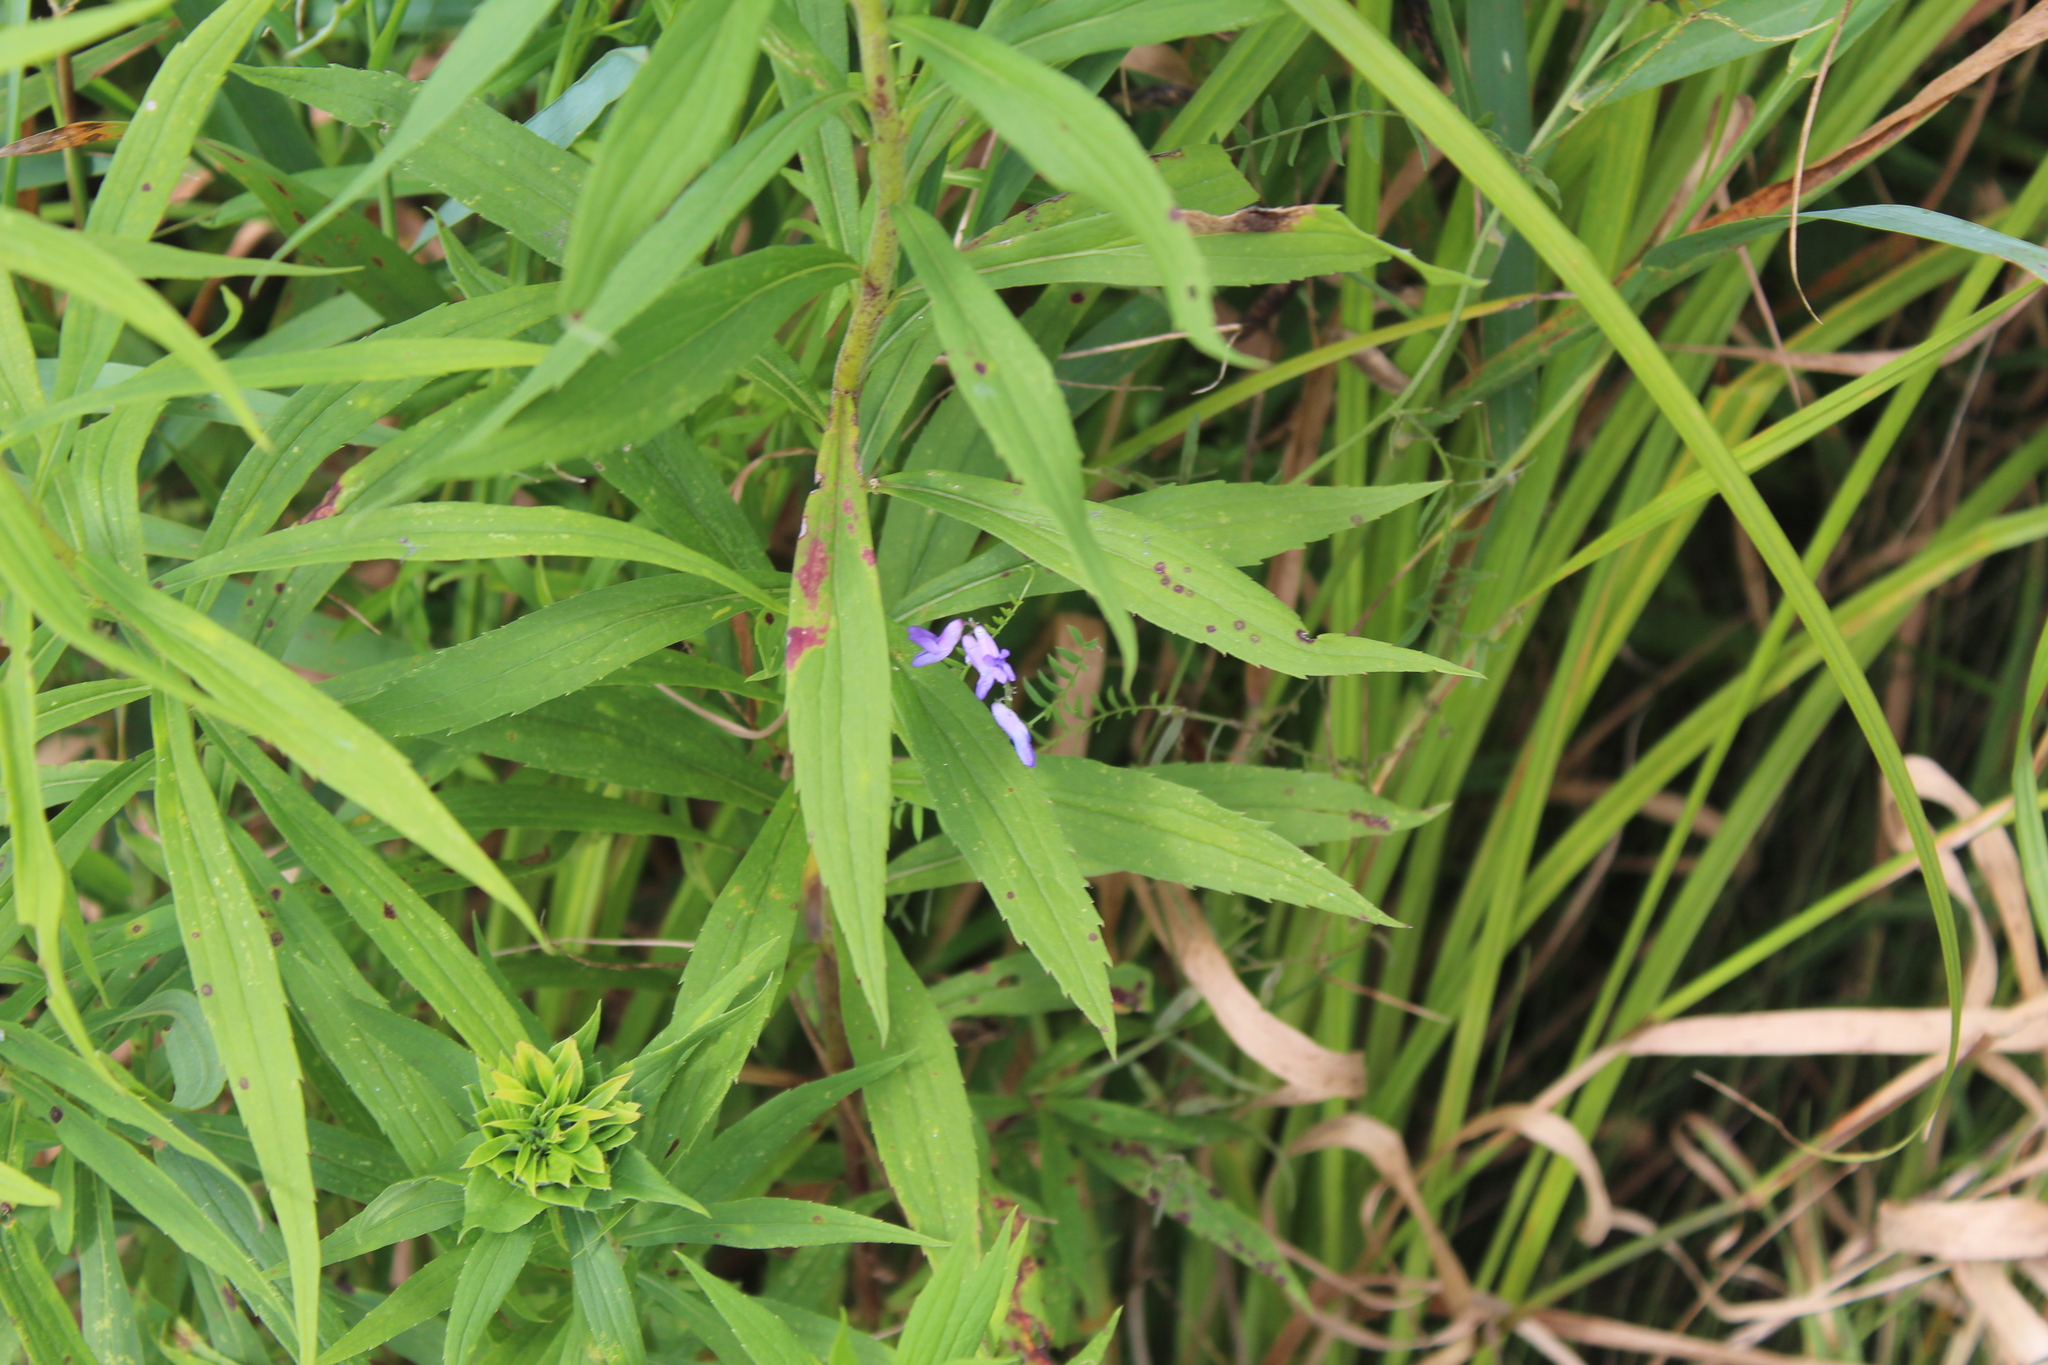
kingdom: Plantae
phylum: Tracheophyta
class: Magnoliopsida
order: Fabales
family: Fabaceae
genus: Vicia
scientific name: Vicia cracca
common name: Bird vetch
